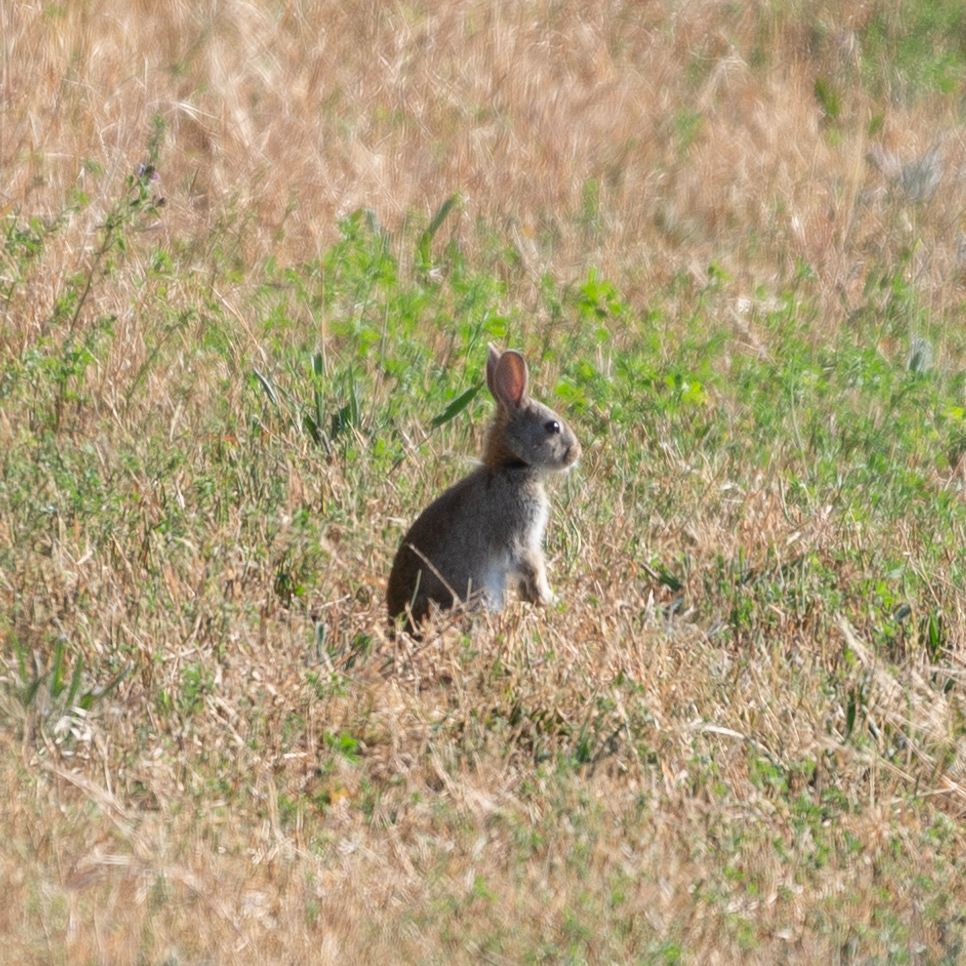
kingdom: Animalia
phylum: Chordata
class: Mammalia
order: Lagomorpha
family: Leporidae
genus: Oryctolagus
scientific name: Oryctolagus cuniculus
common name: European rabbit
